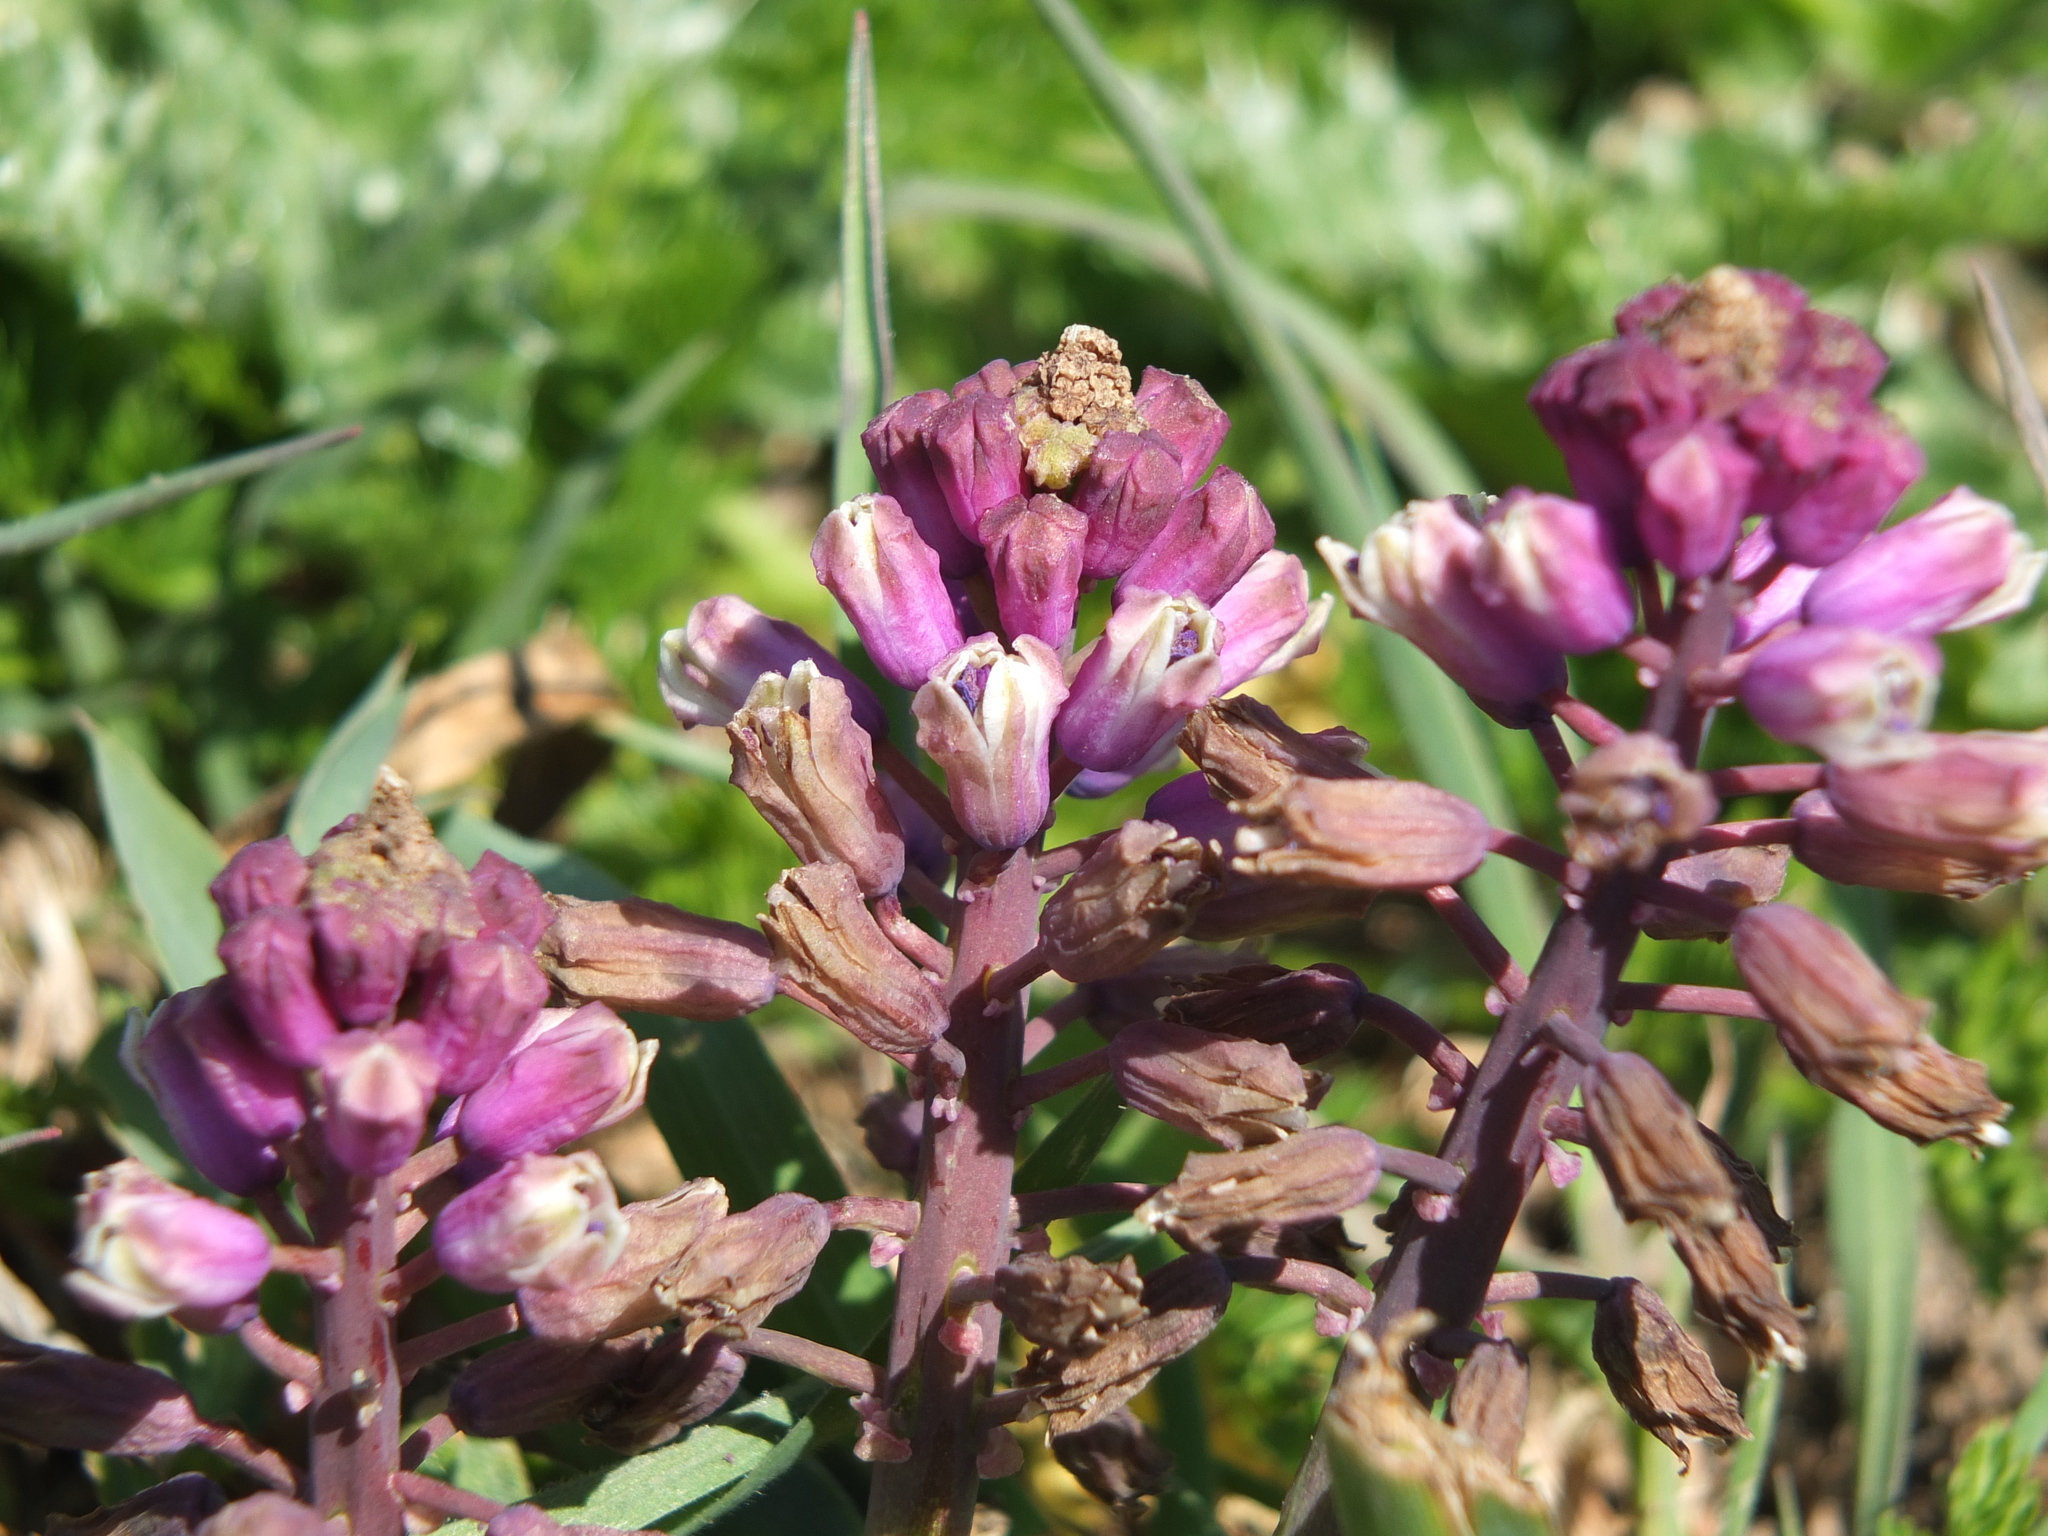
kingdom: Plantae
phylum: Tracheophyta
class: Liliopsida
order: Asparagales
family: Asparagaceae
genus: Muscari
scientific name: Muscari comosum
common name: Tassel hyacinth
